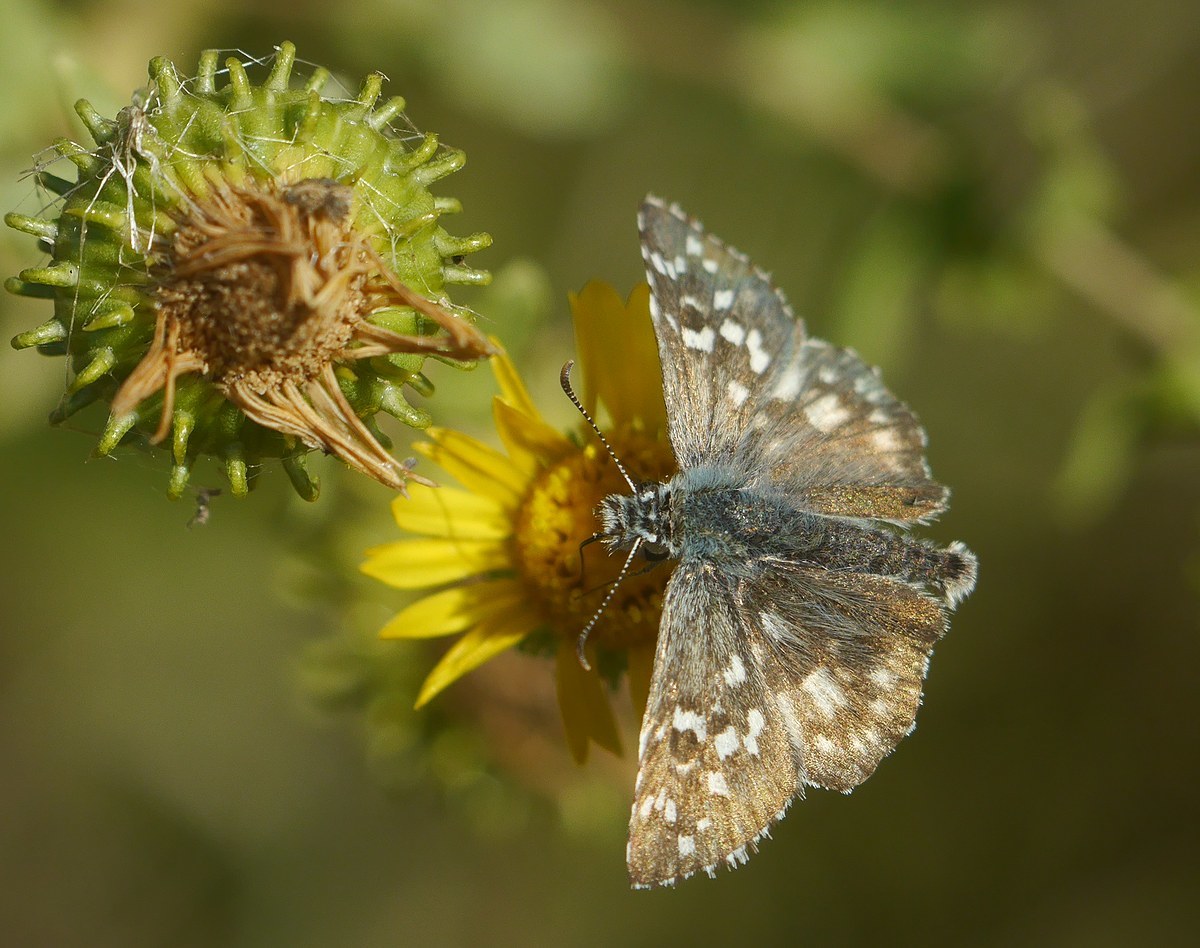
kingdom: Animalia
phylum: Arthropoda
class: Insecta
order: Lepidoptera
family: Hesperiidae
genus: Pyrgus
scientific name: Pyrgus armoricanus
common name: Oberthür's grizzled skipper
